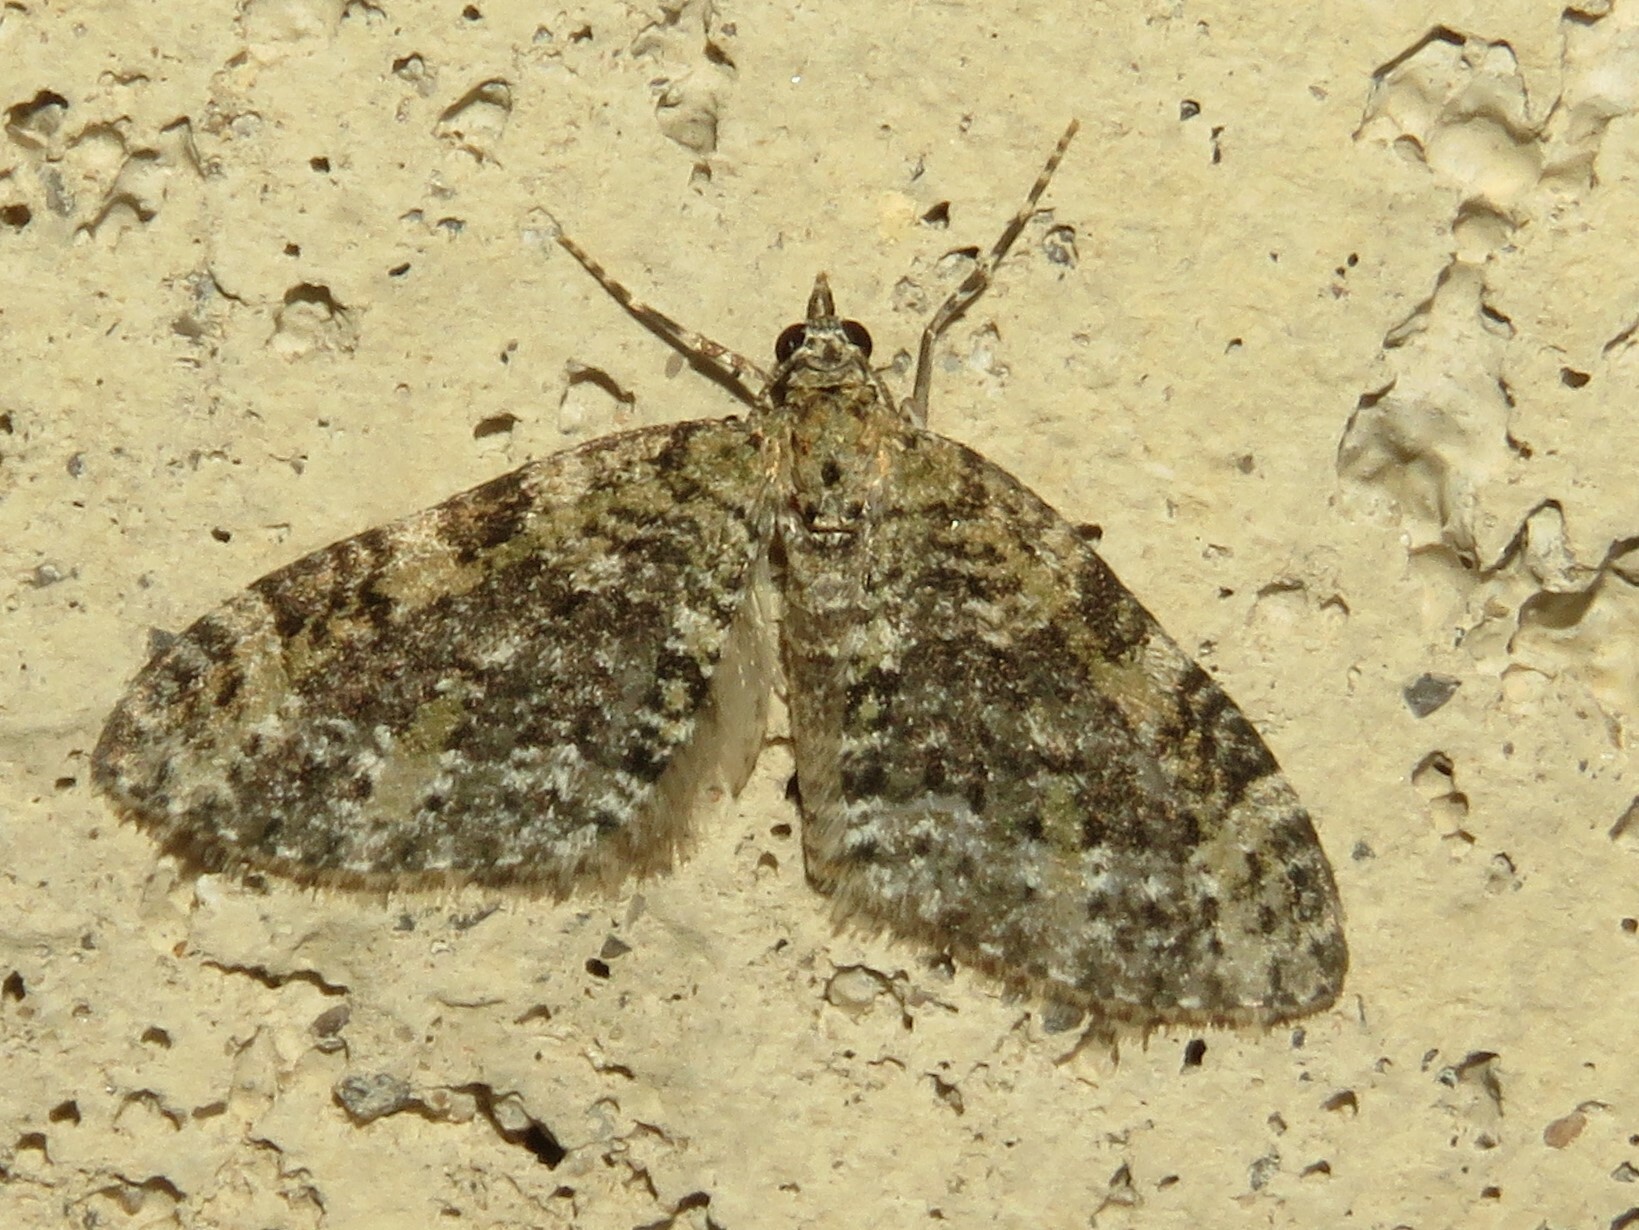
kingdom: Animalia
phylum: Arthropoda
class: Insecta
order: Lepidoptera
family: Geometridae
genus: Acasis
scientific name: Acasis viridata
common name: Olive-and-black carpet moth
